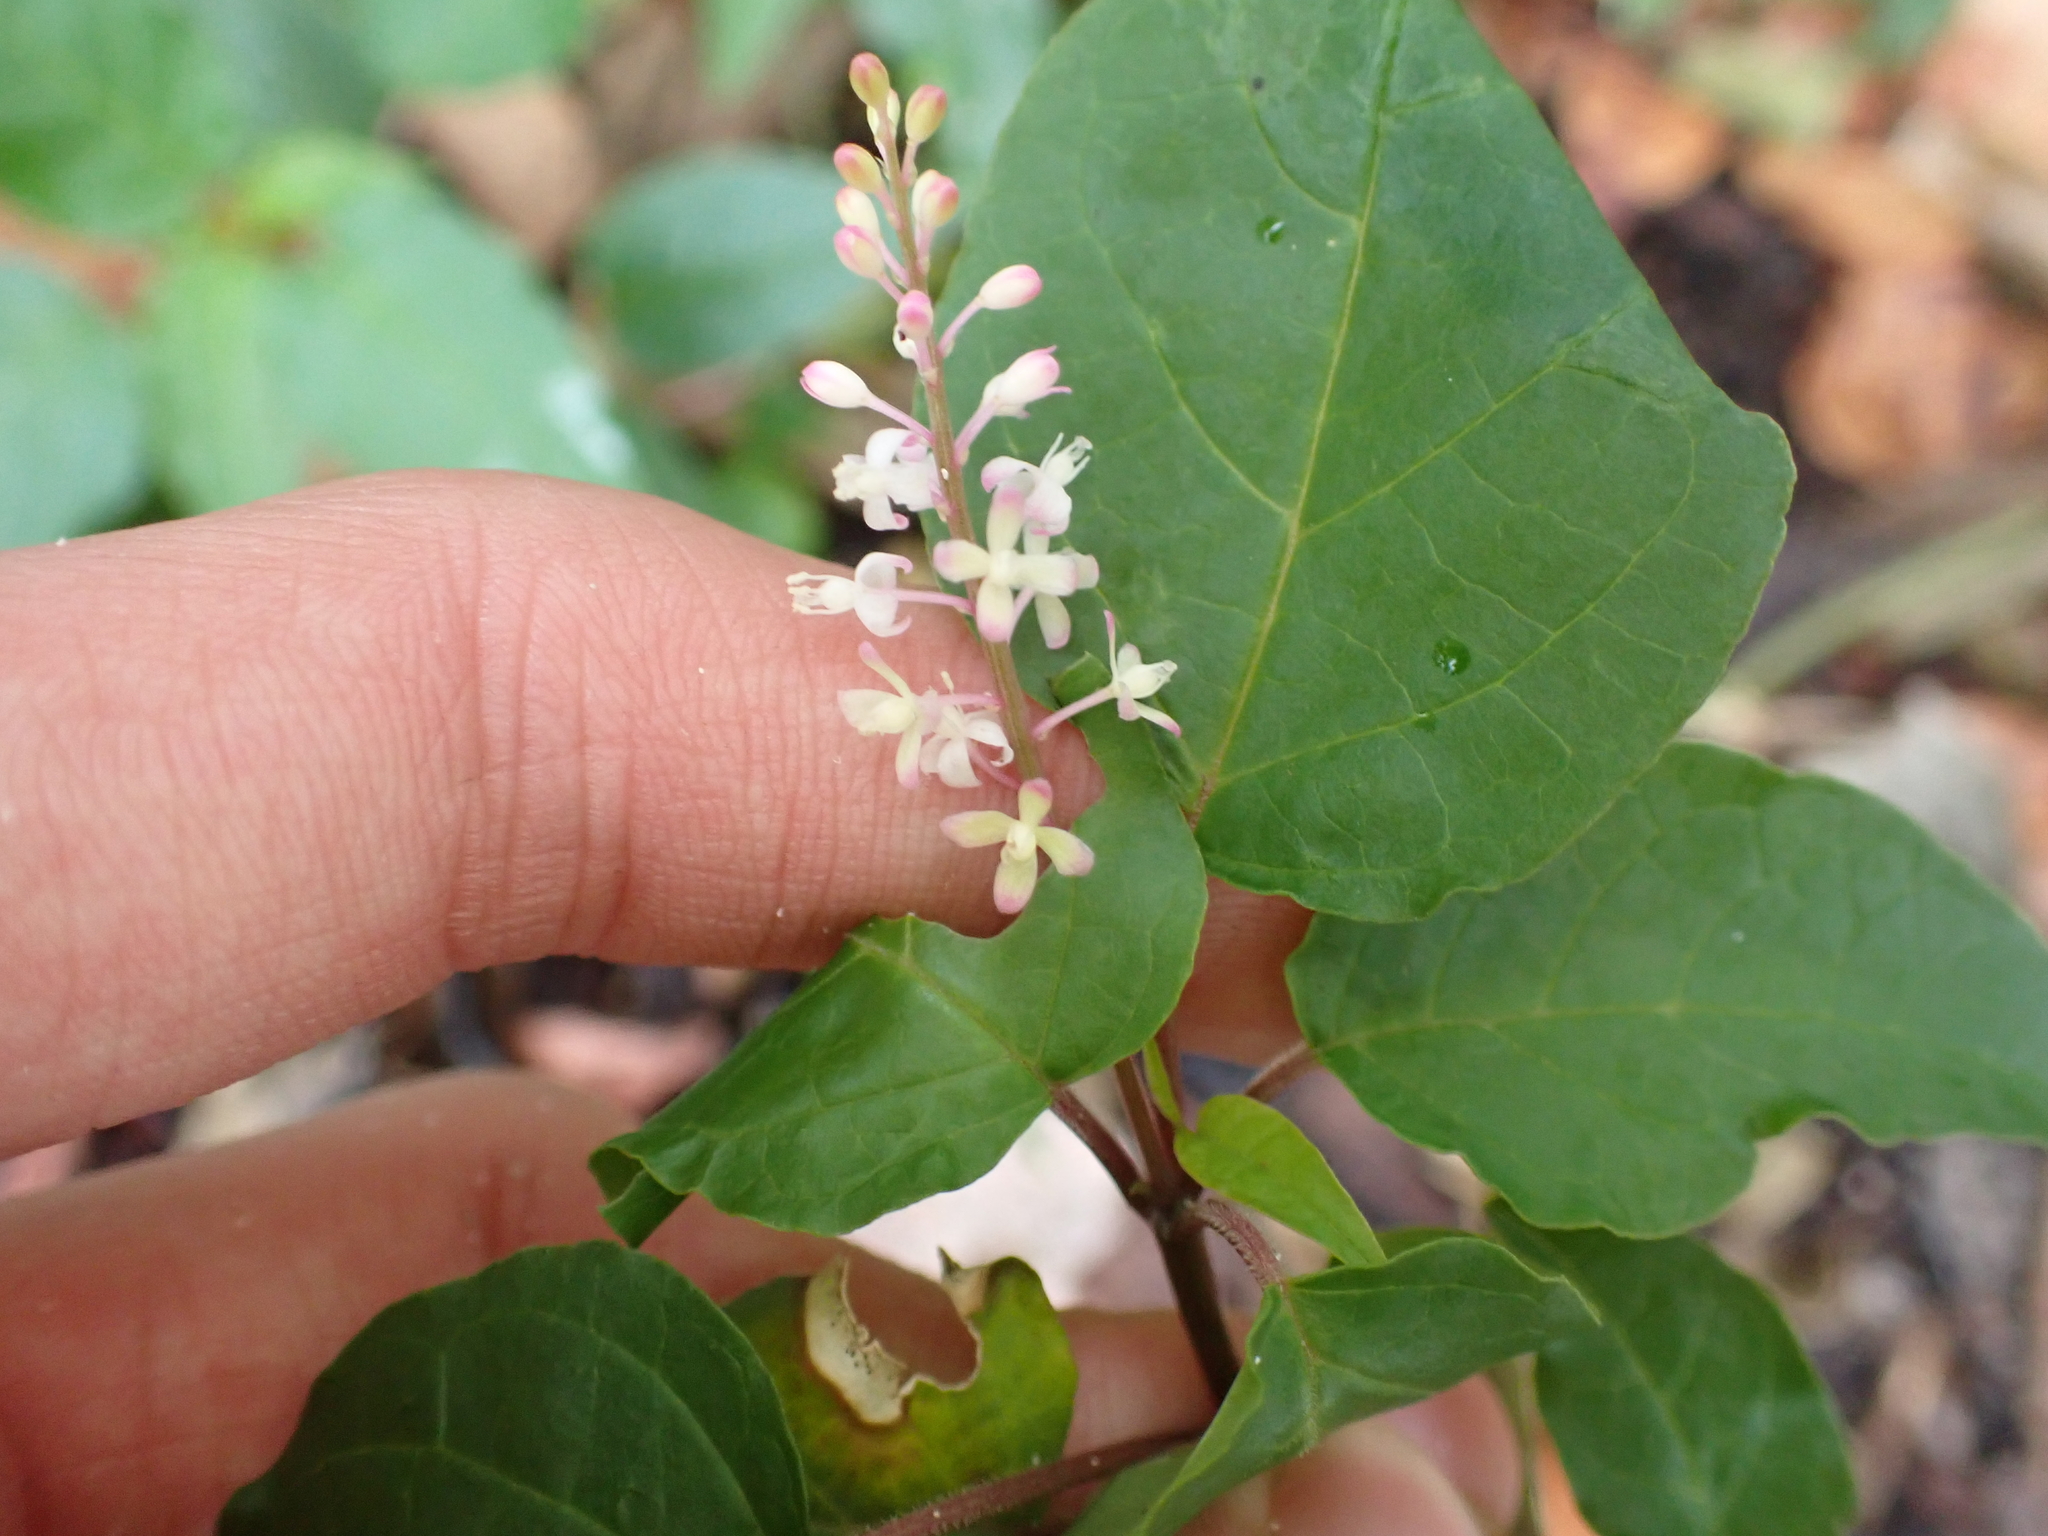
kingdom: Plantae
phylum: Tracheophyta
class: Magnoliopsida
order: Caryophyllales
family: Phytolaccaceae
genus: Rivina
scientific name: Rivina humilis
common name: Rougeplant
